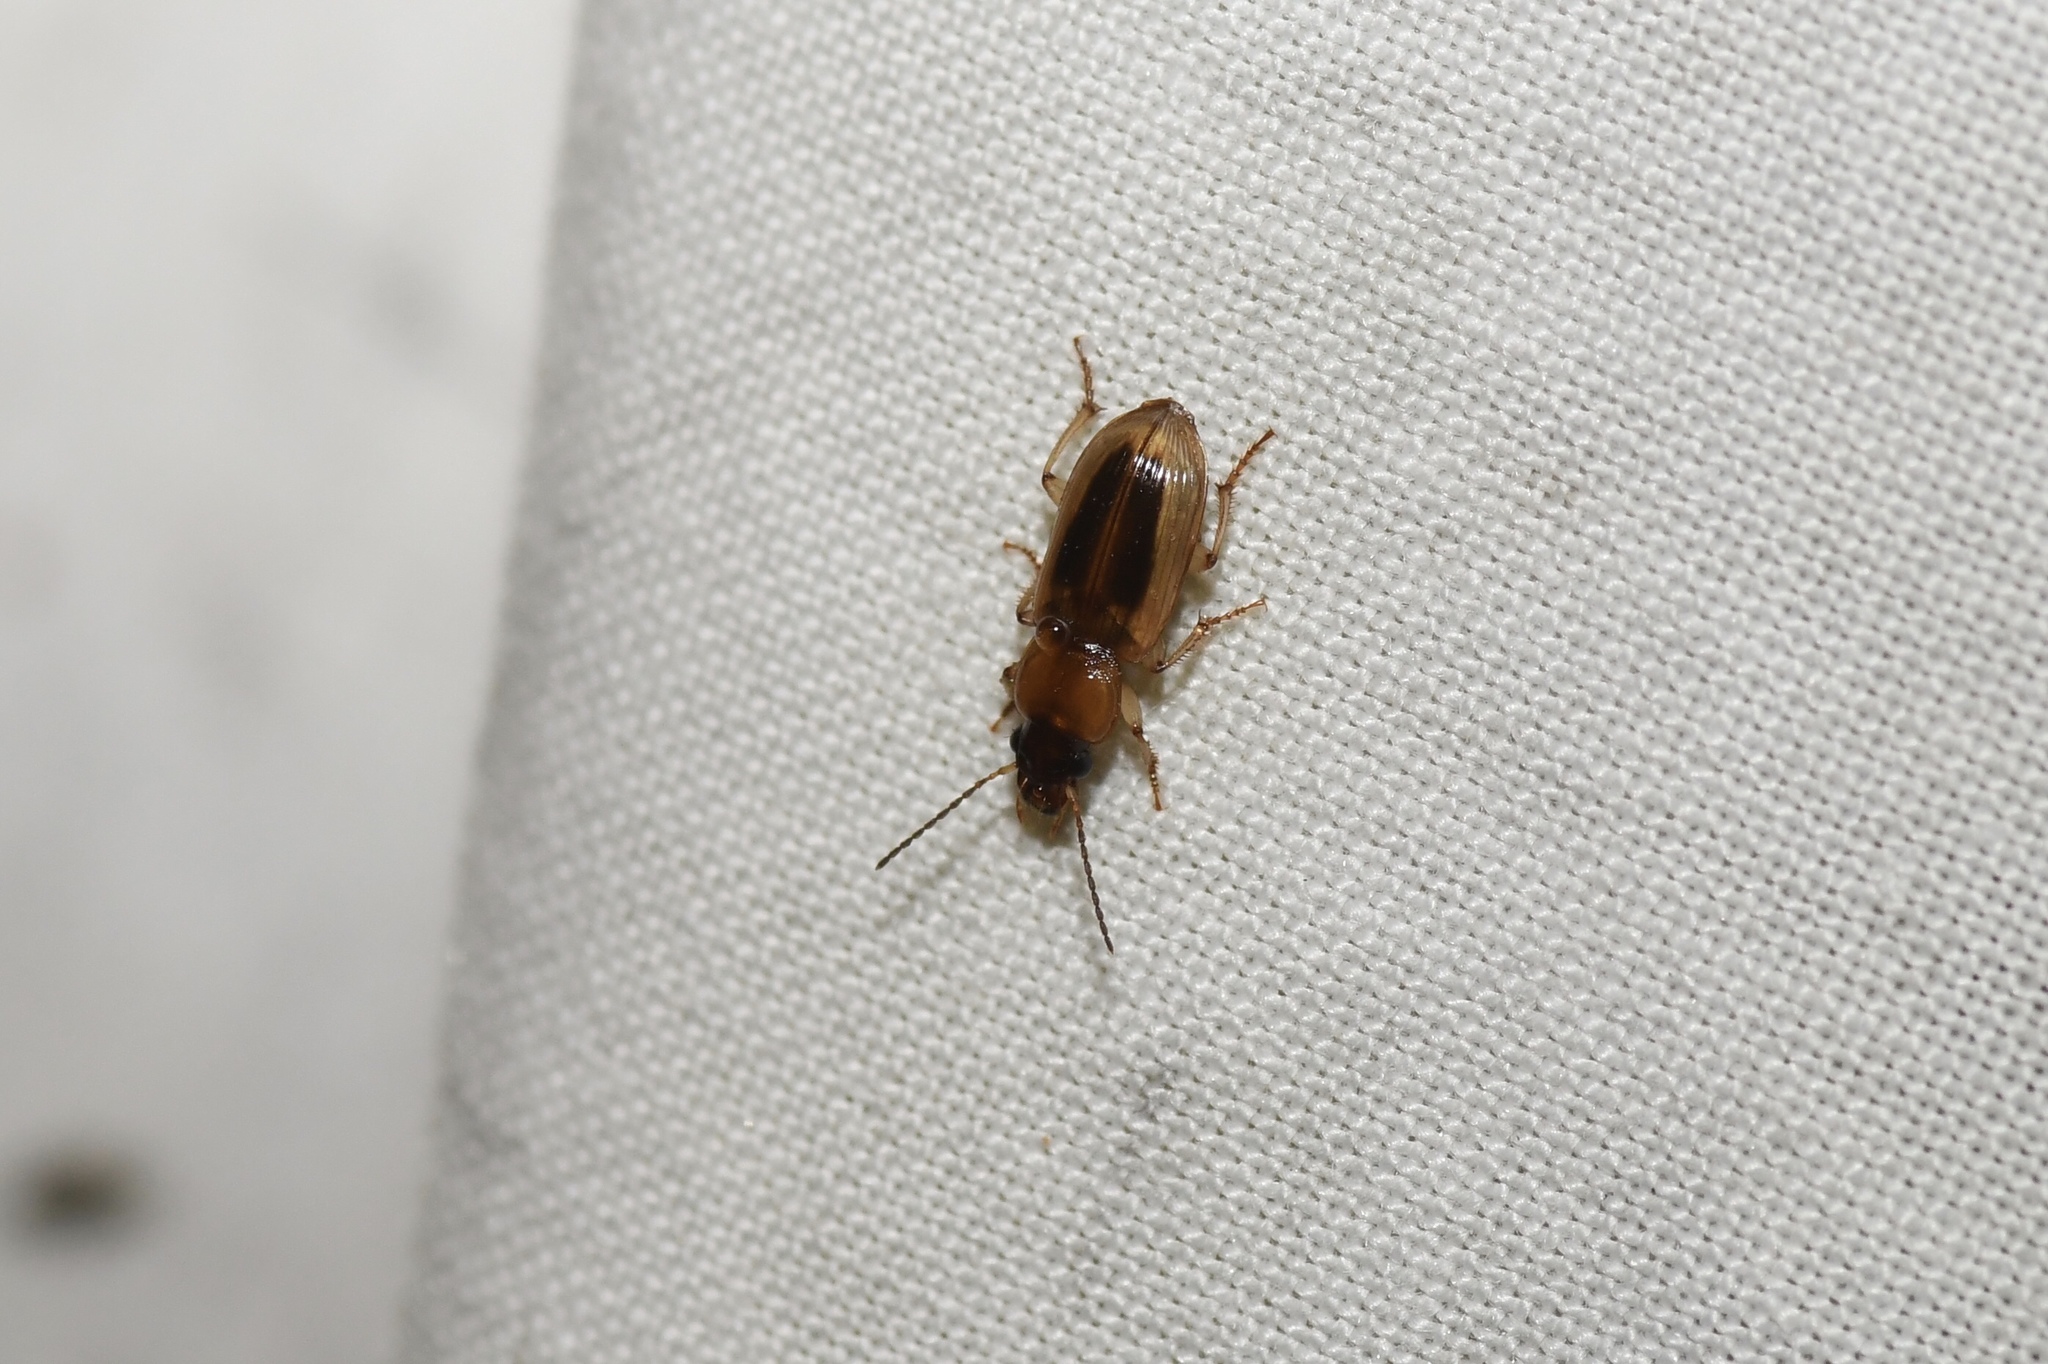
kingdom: Animalia
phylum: Arthropoda
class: Insecta
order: Coleoptera
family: Carabidae
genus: Stenolophus
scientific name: Stenolophus lecontei
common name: Leconte's seedcorn beetle
